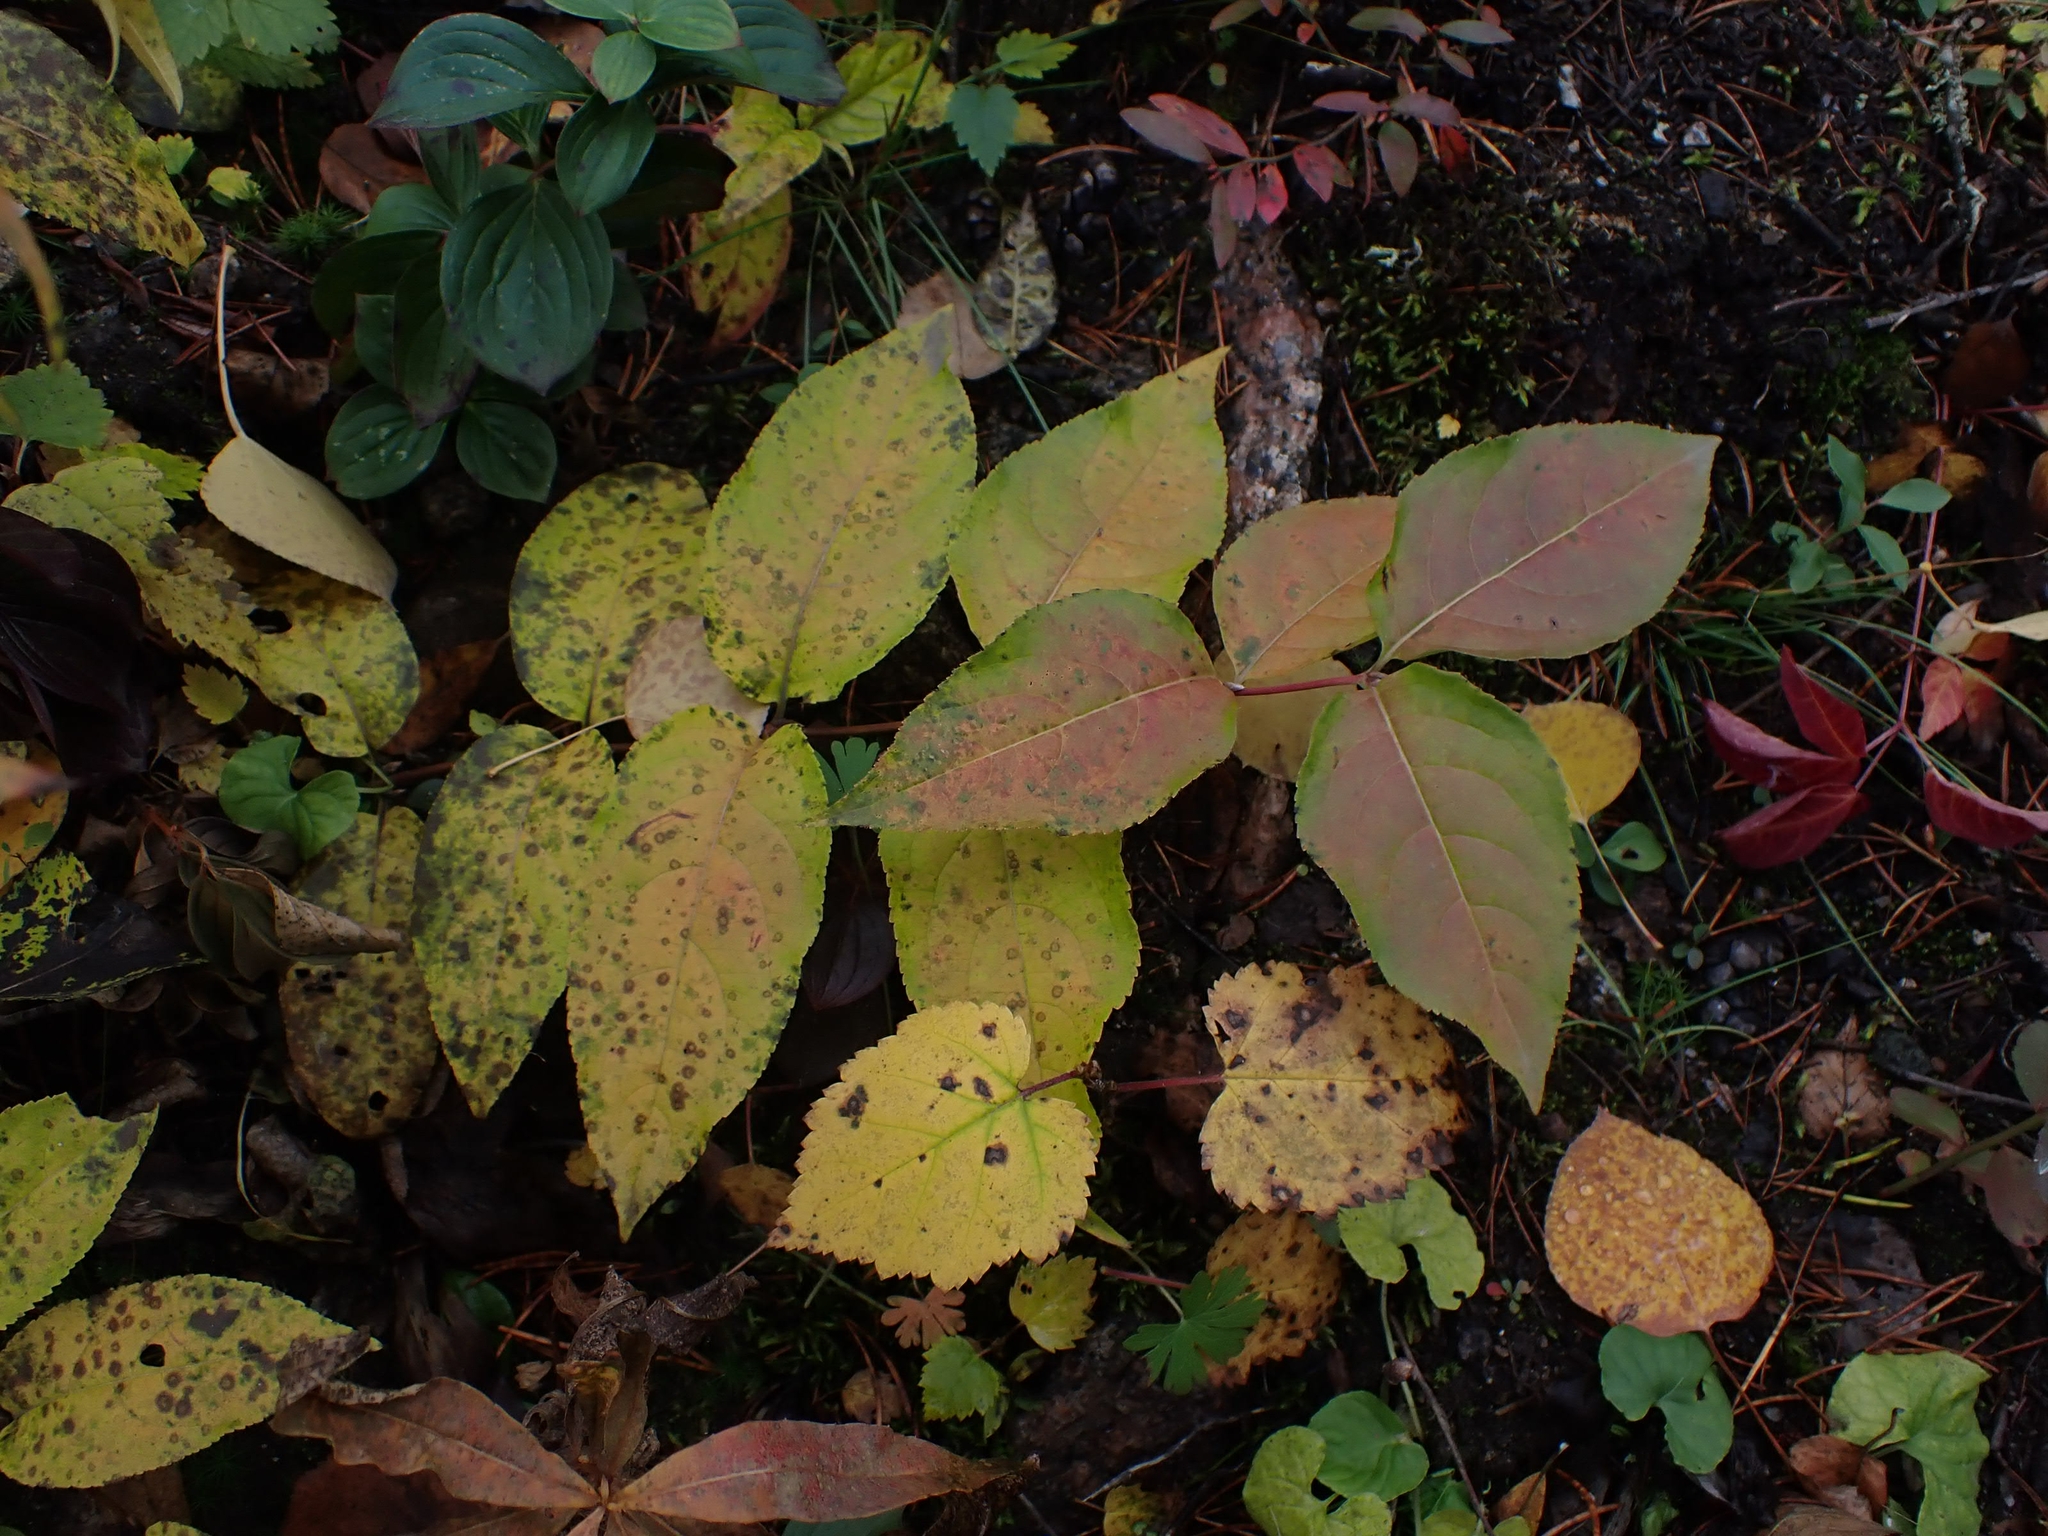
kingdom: Plantae
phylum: Tracheophyta
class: Magnoliopsida
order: Dipsacales
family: Caprifoliaceae
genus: Diervilla
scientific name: Diervilla lonicera
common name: Bush-honeysuckle
